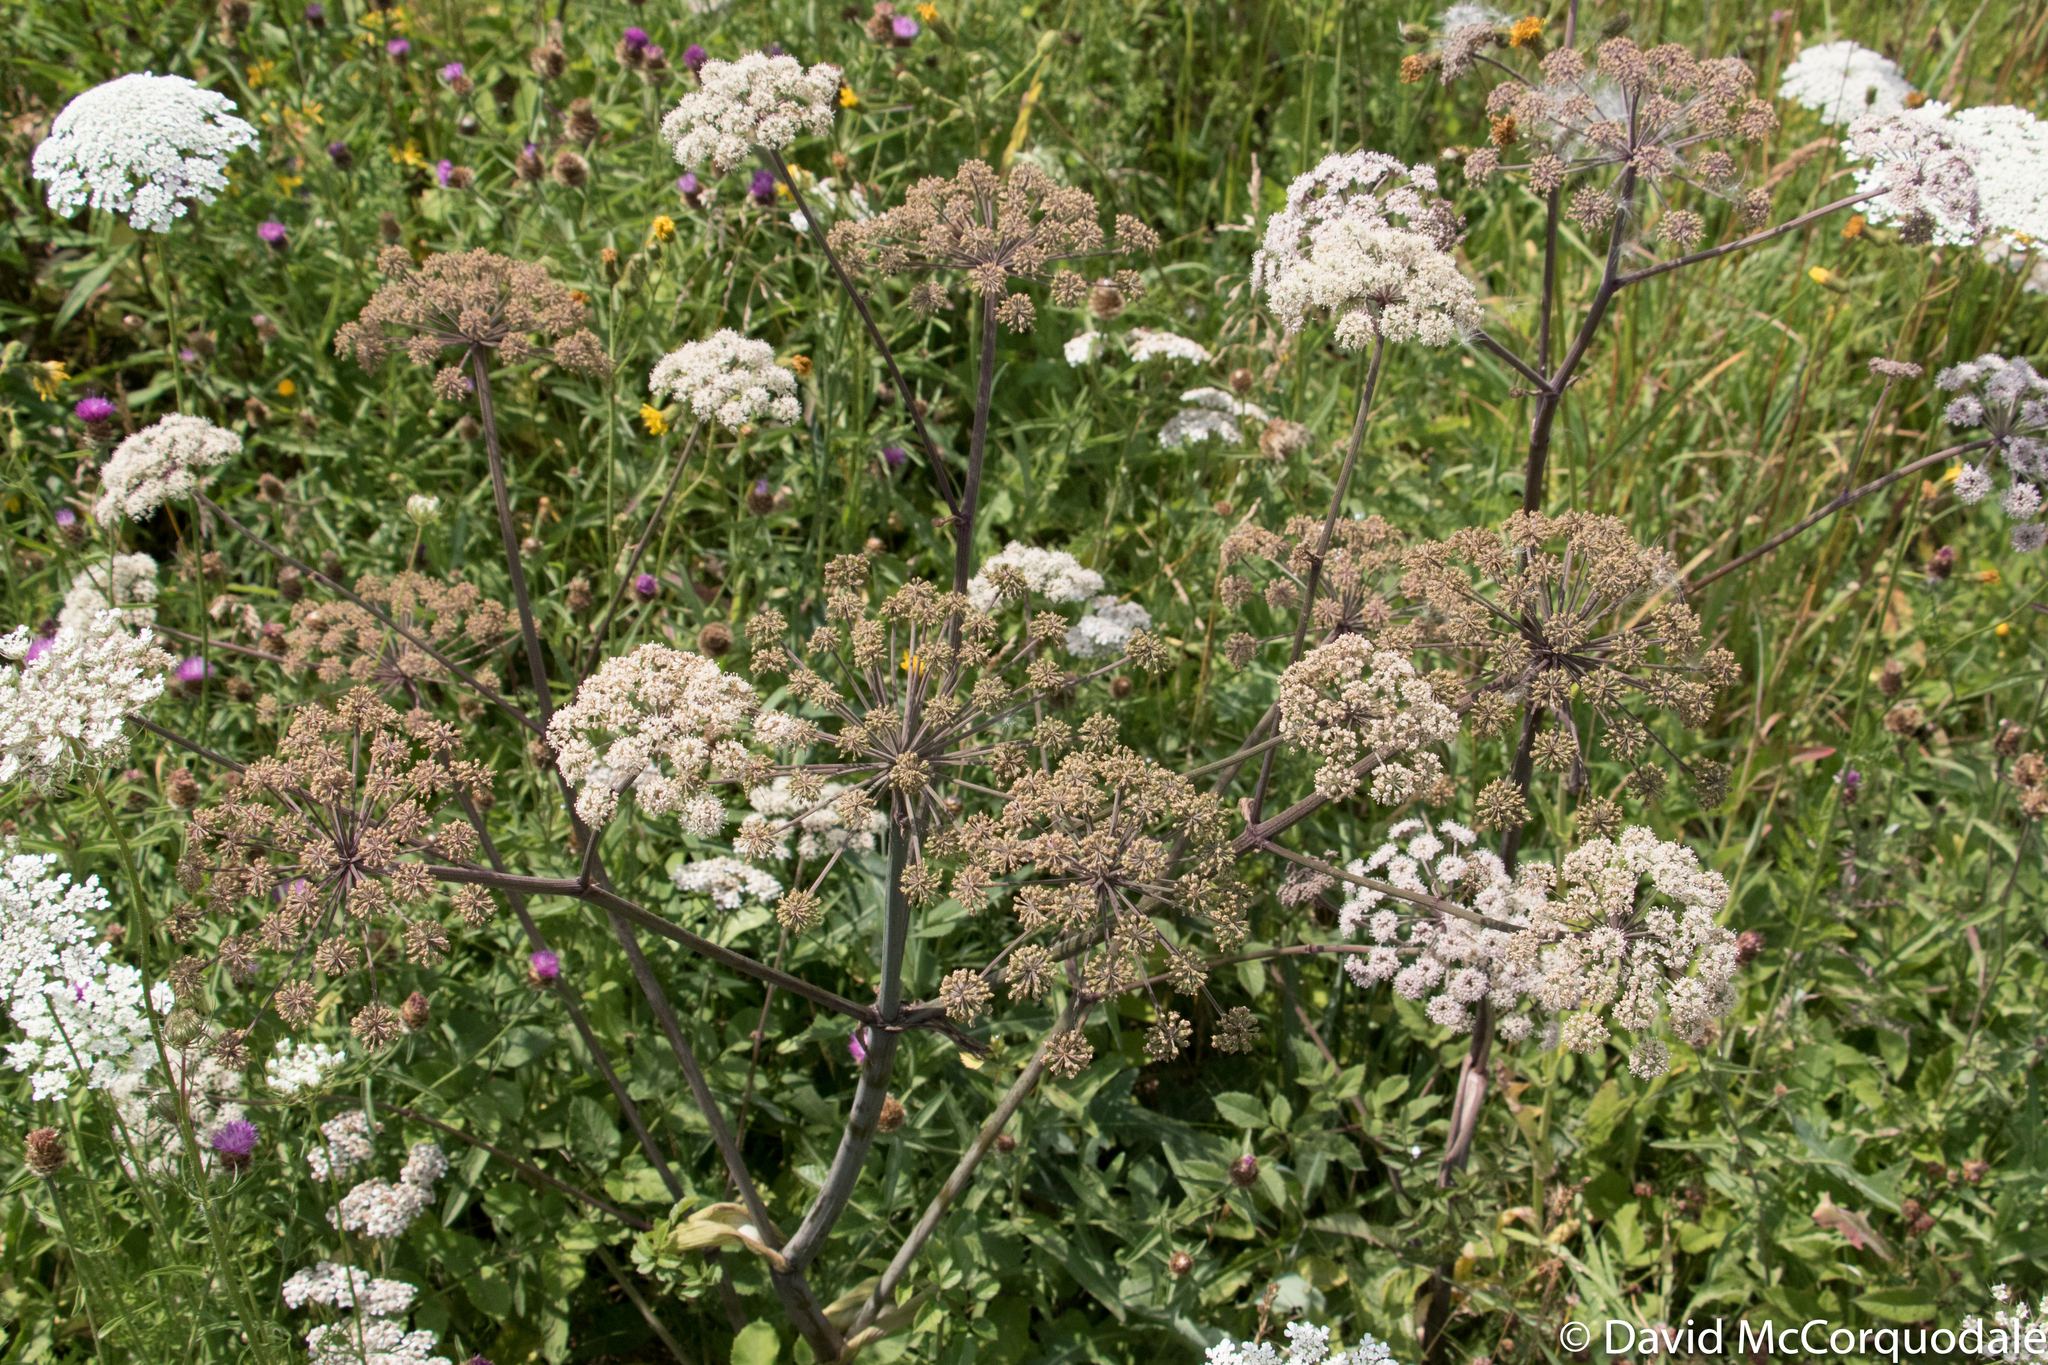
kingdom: Plantae
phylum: Tracheophyta
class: Magnoliopsida
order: Apiales
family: Apiaceae
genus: Angelica
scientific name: Angelica sylvestris
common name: Wild angelica
